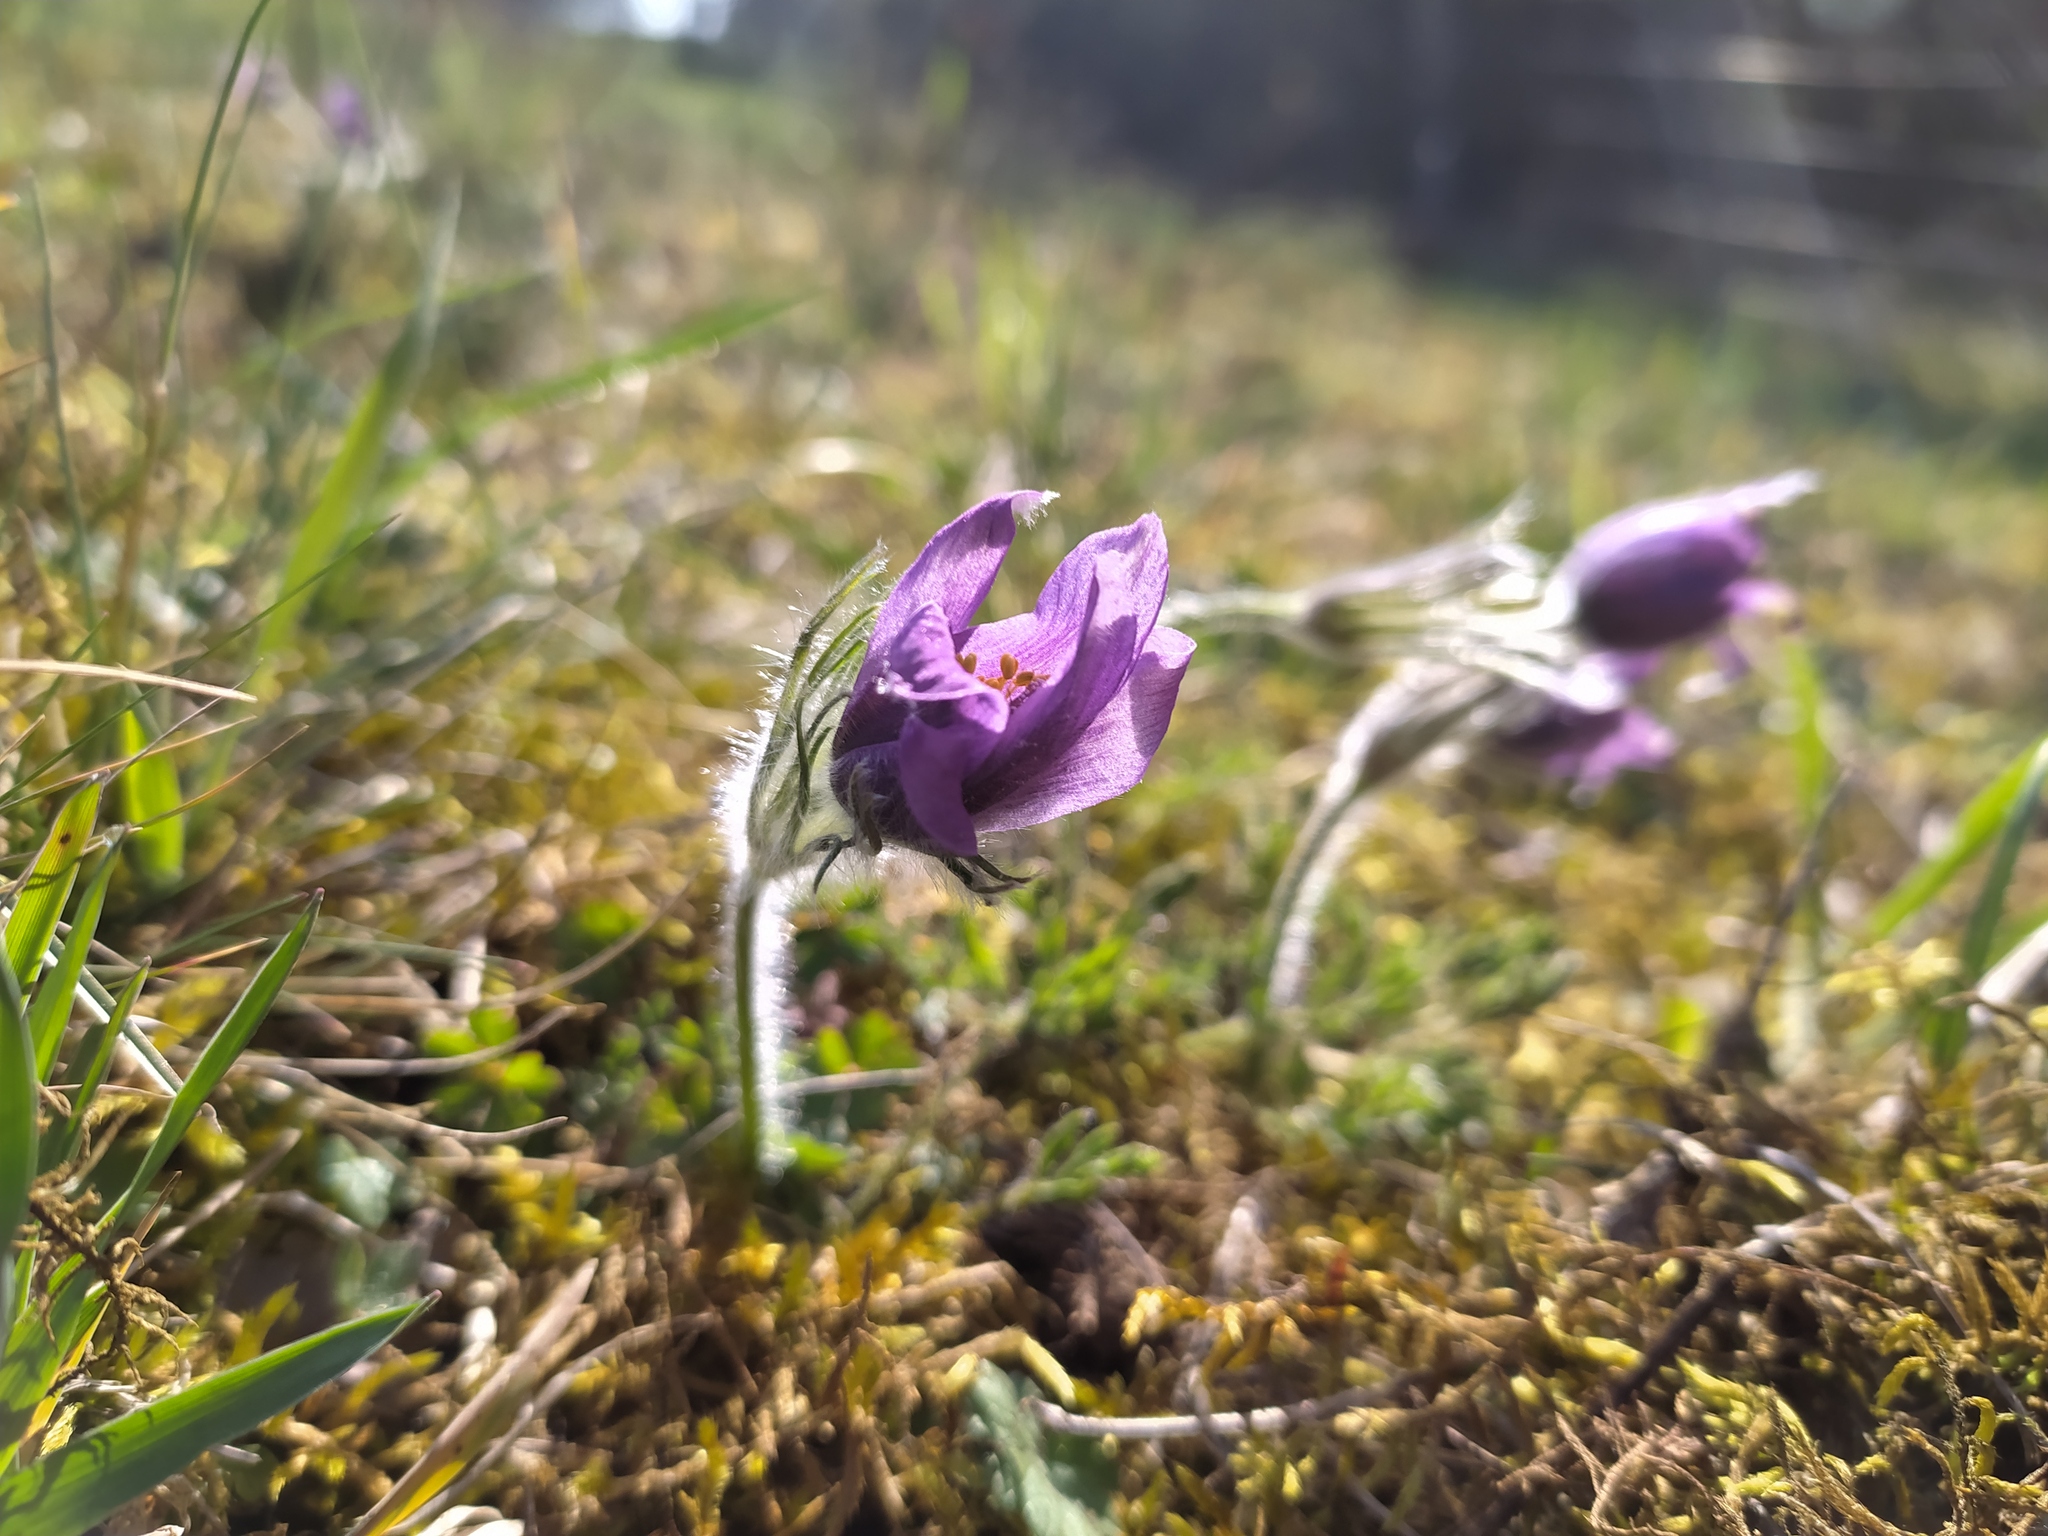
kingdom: Plantae
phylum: Tracheophyta
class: Magnoliopsida
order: Ranunculales
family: Ranunculaceae
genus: Pulsatilla
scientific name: Pulsatilla vulgaris
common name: Pasqueflower
